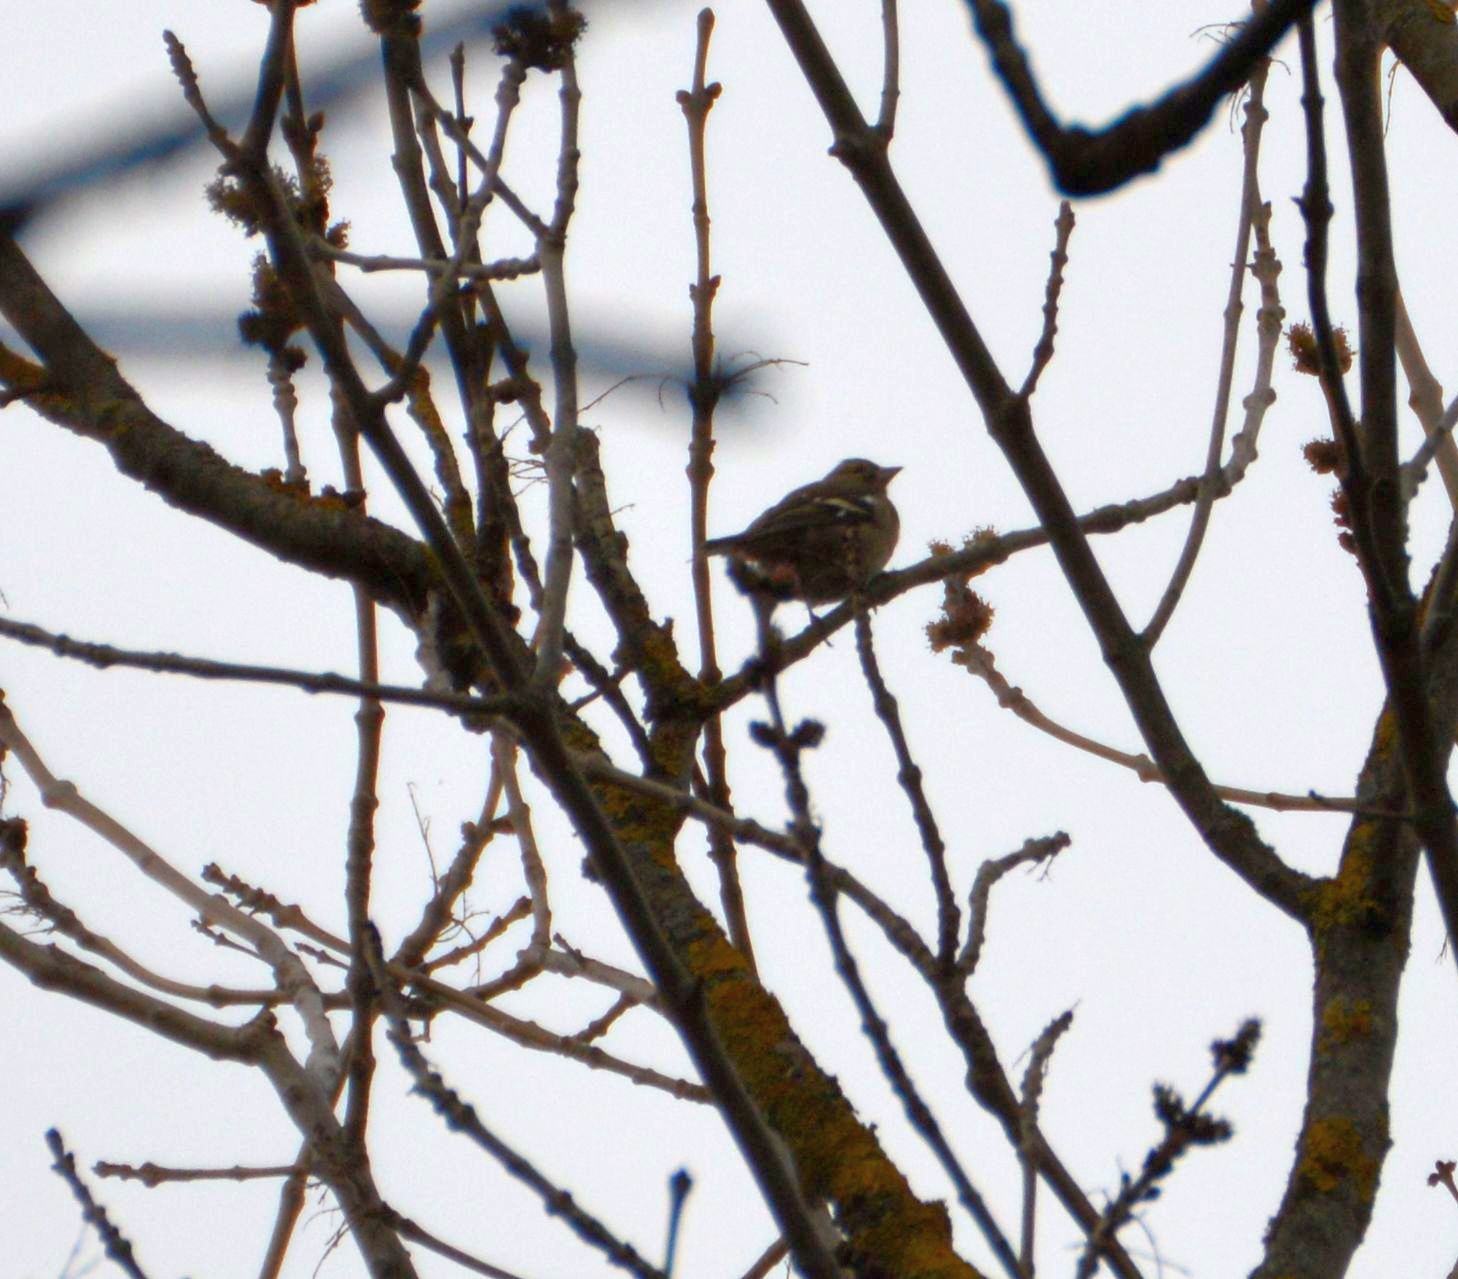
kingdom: Animalia
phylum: Chordata
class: Aves
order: Passeriformes
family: Fringillidae
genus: Fringilla
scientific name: Fringilla coelebs
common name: Common chaffinch
